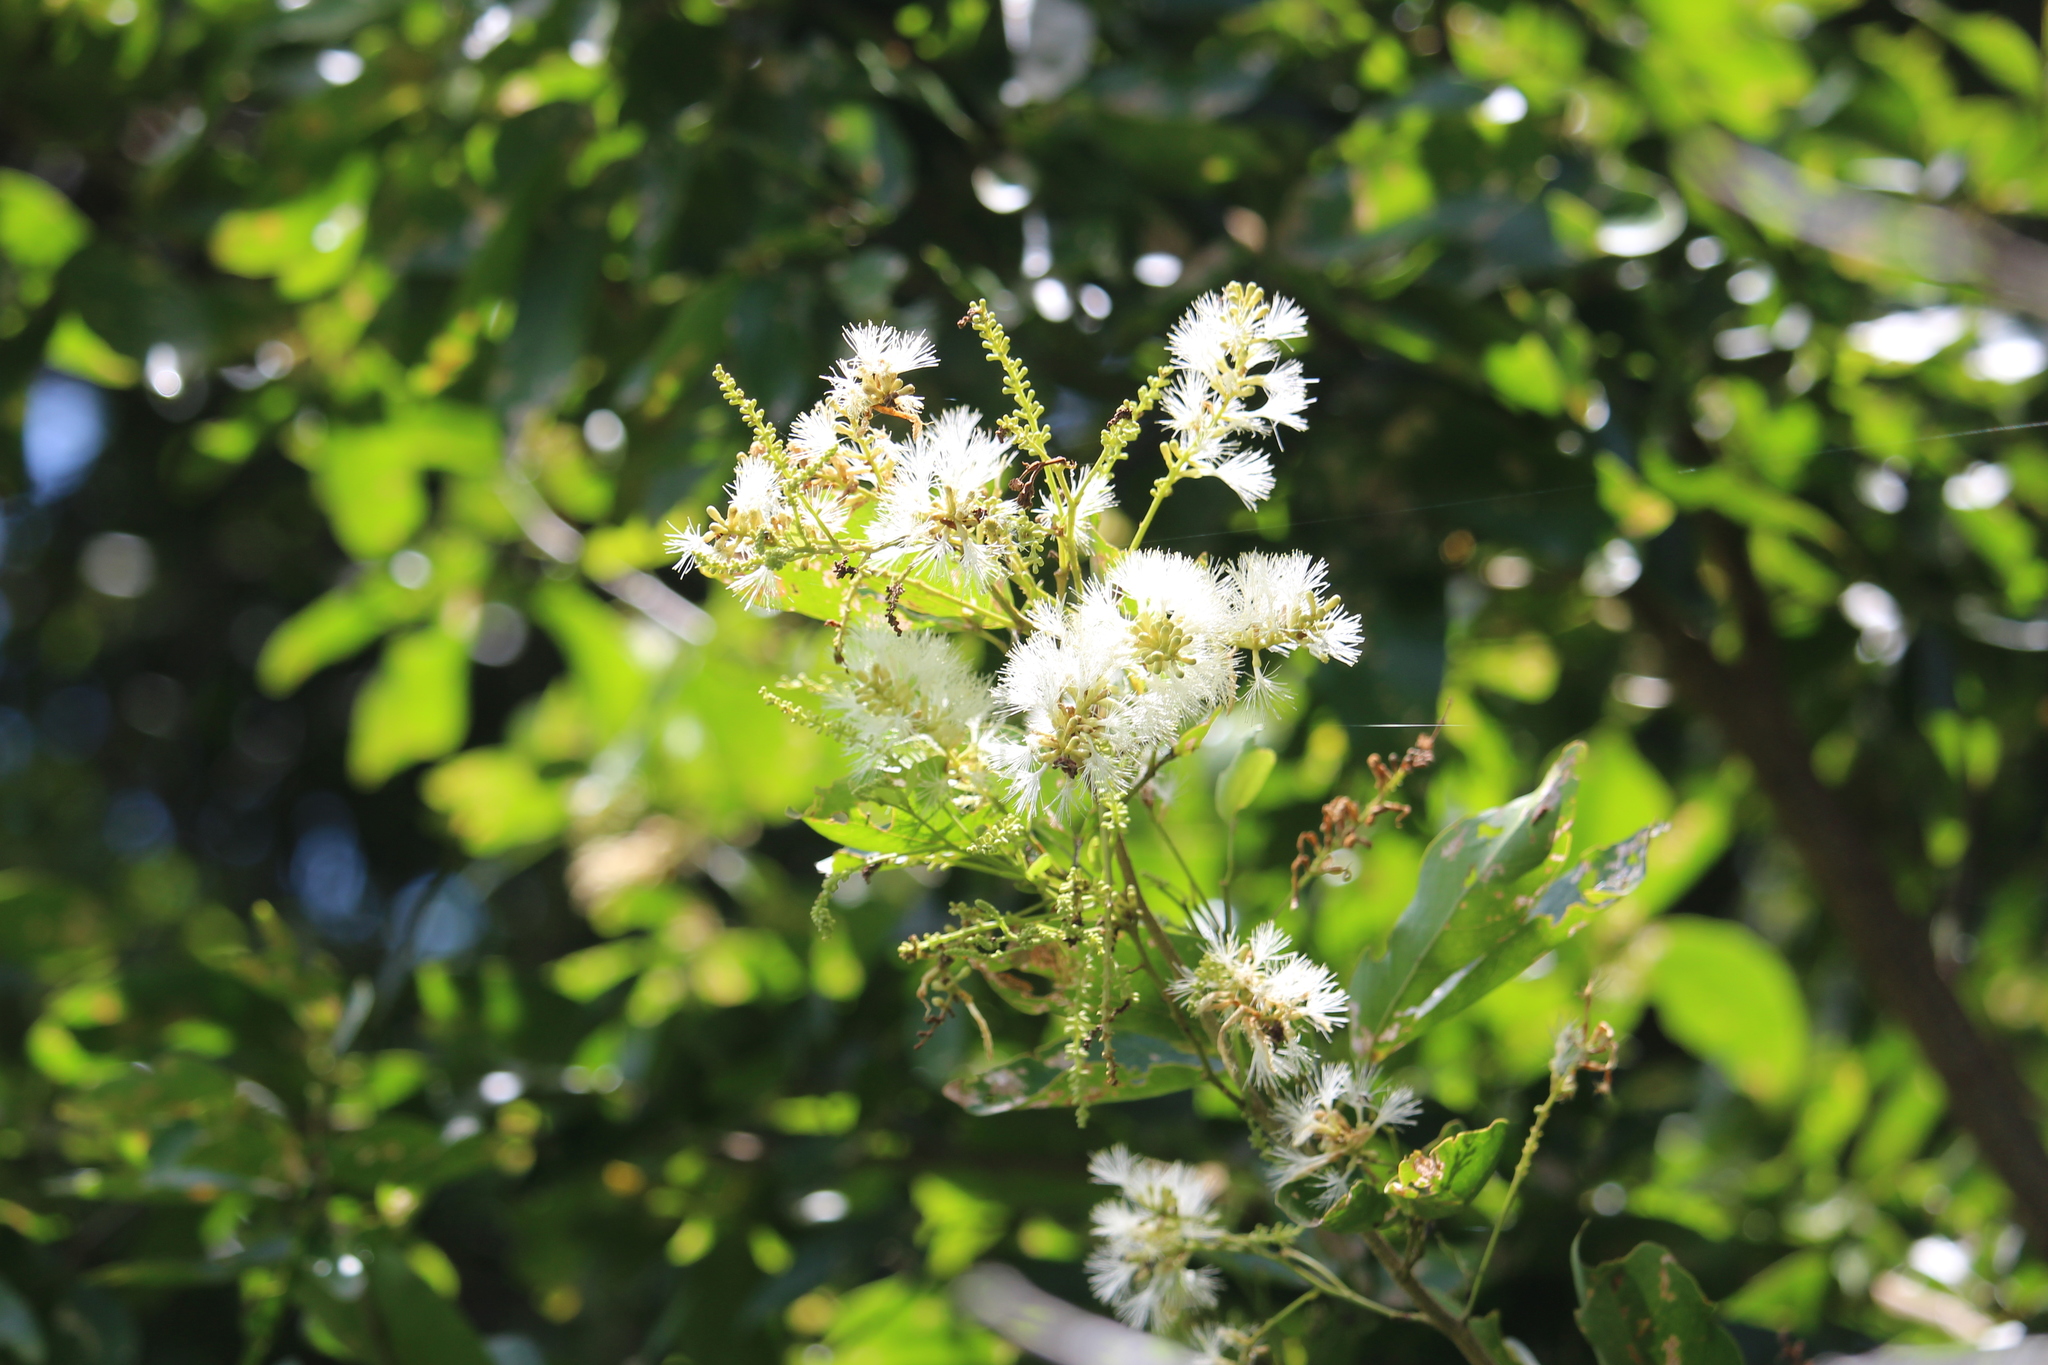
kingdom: Plantae
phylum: Tracheophyta
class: Magnoliopsida
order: Fabales
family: Fabaceae
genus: Pithecellobium
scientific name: Pithecellobium lanceolatum
